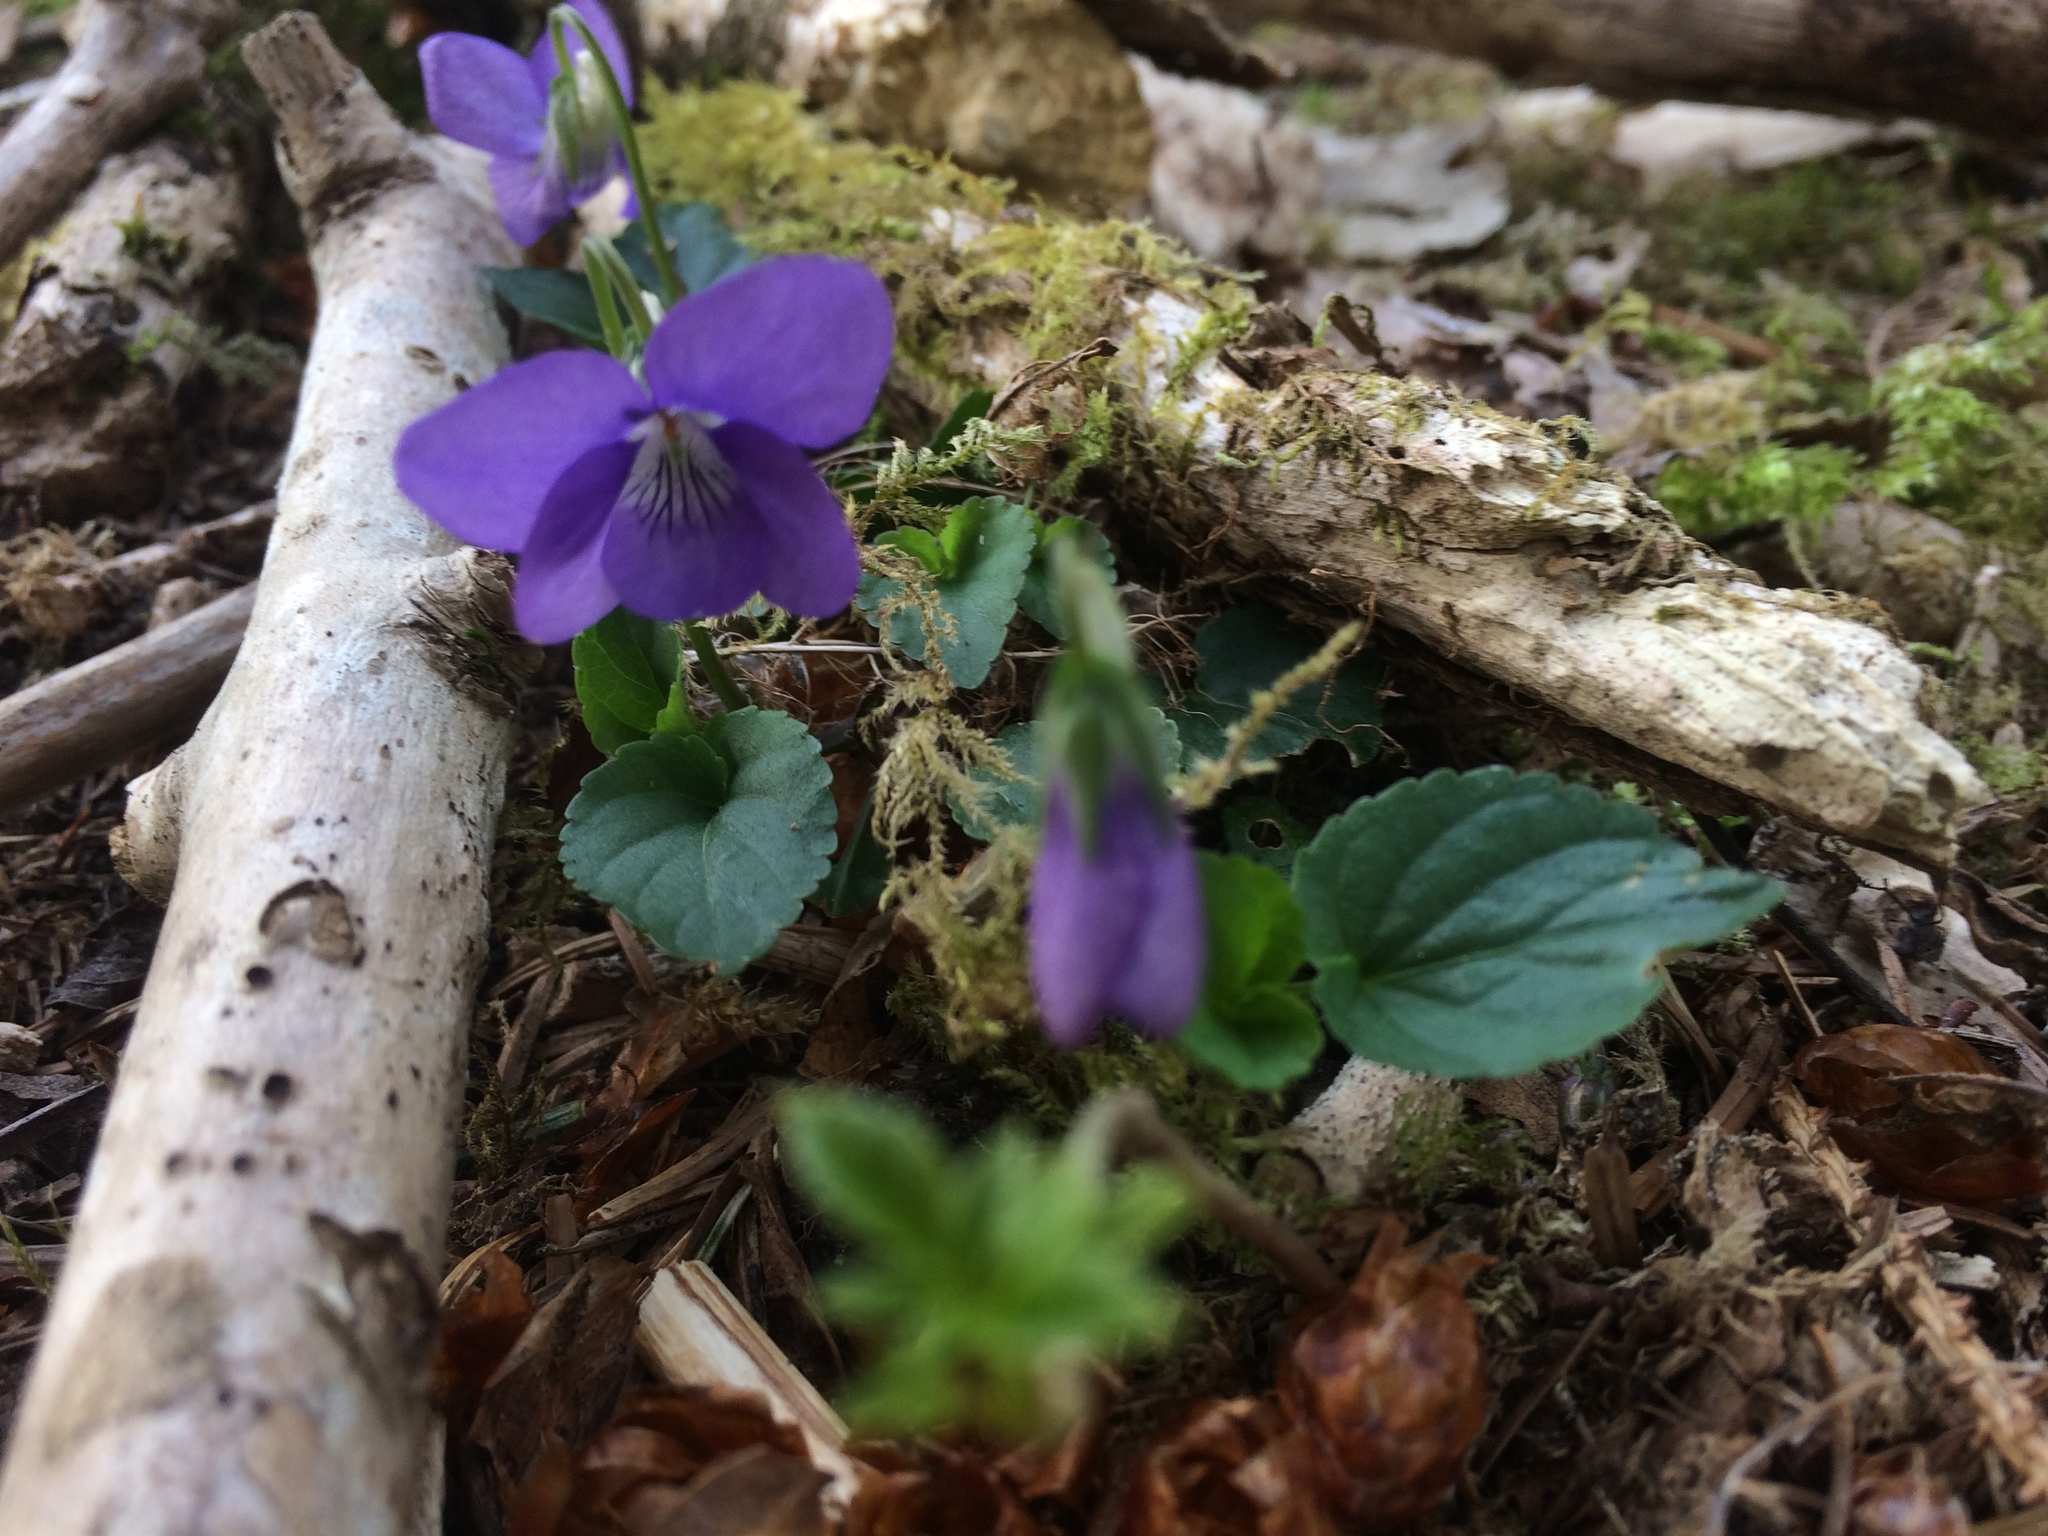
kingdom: Plantae
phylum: Tracheophyta
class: Magnoliopsida
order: Malpighiales
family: Violaceae
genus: Viola
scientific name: Viola riviniana
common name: Common dog-violet
